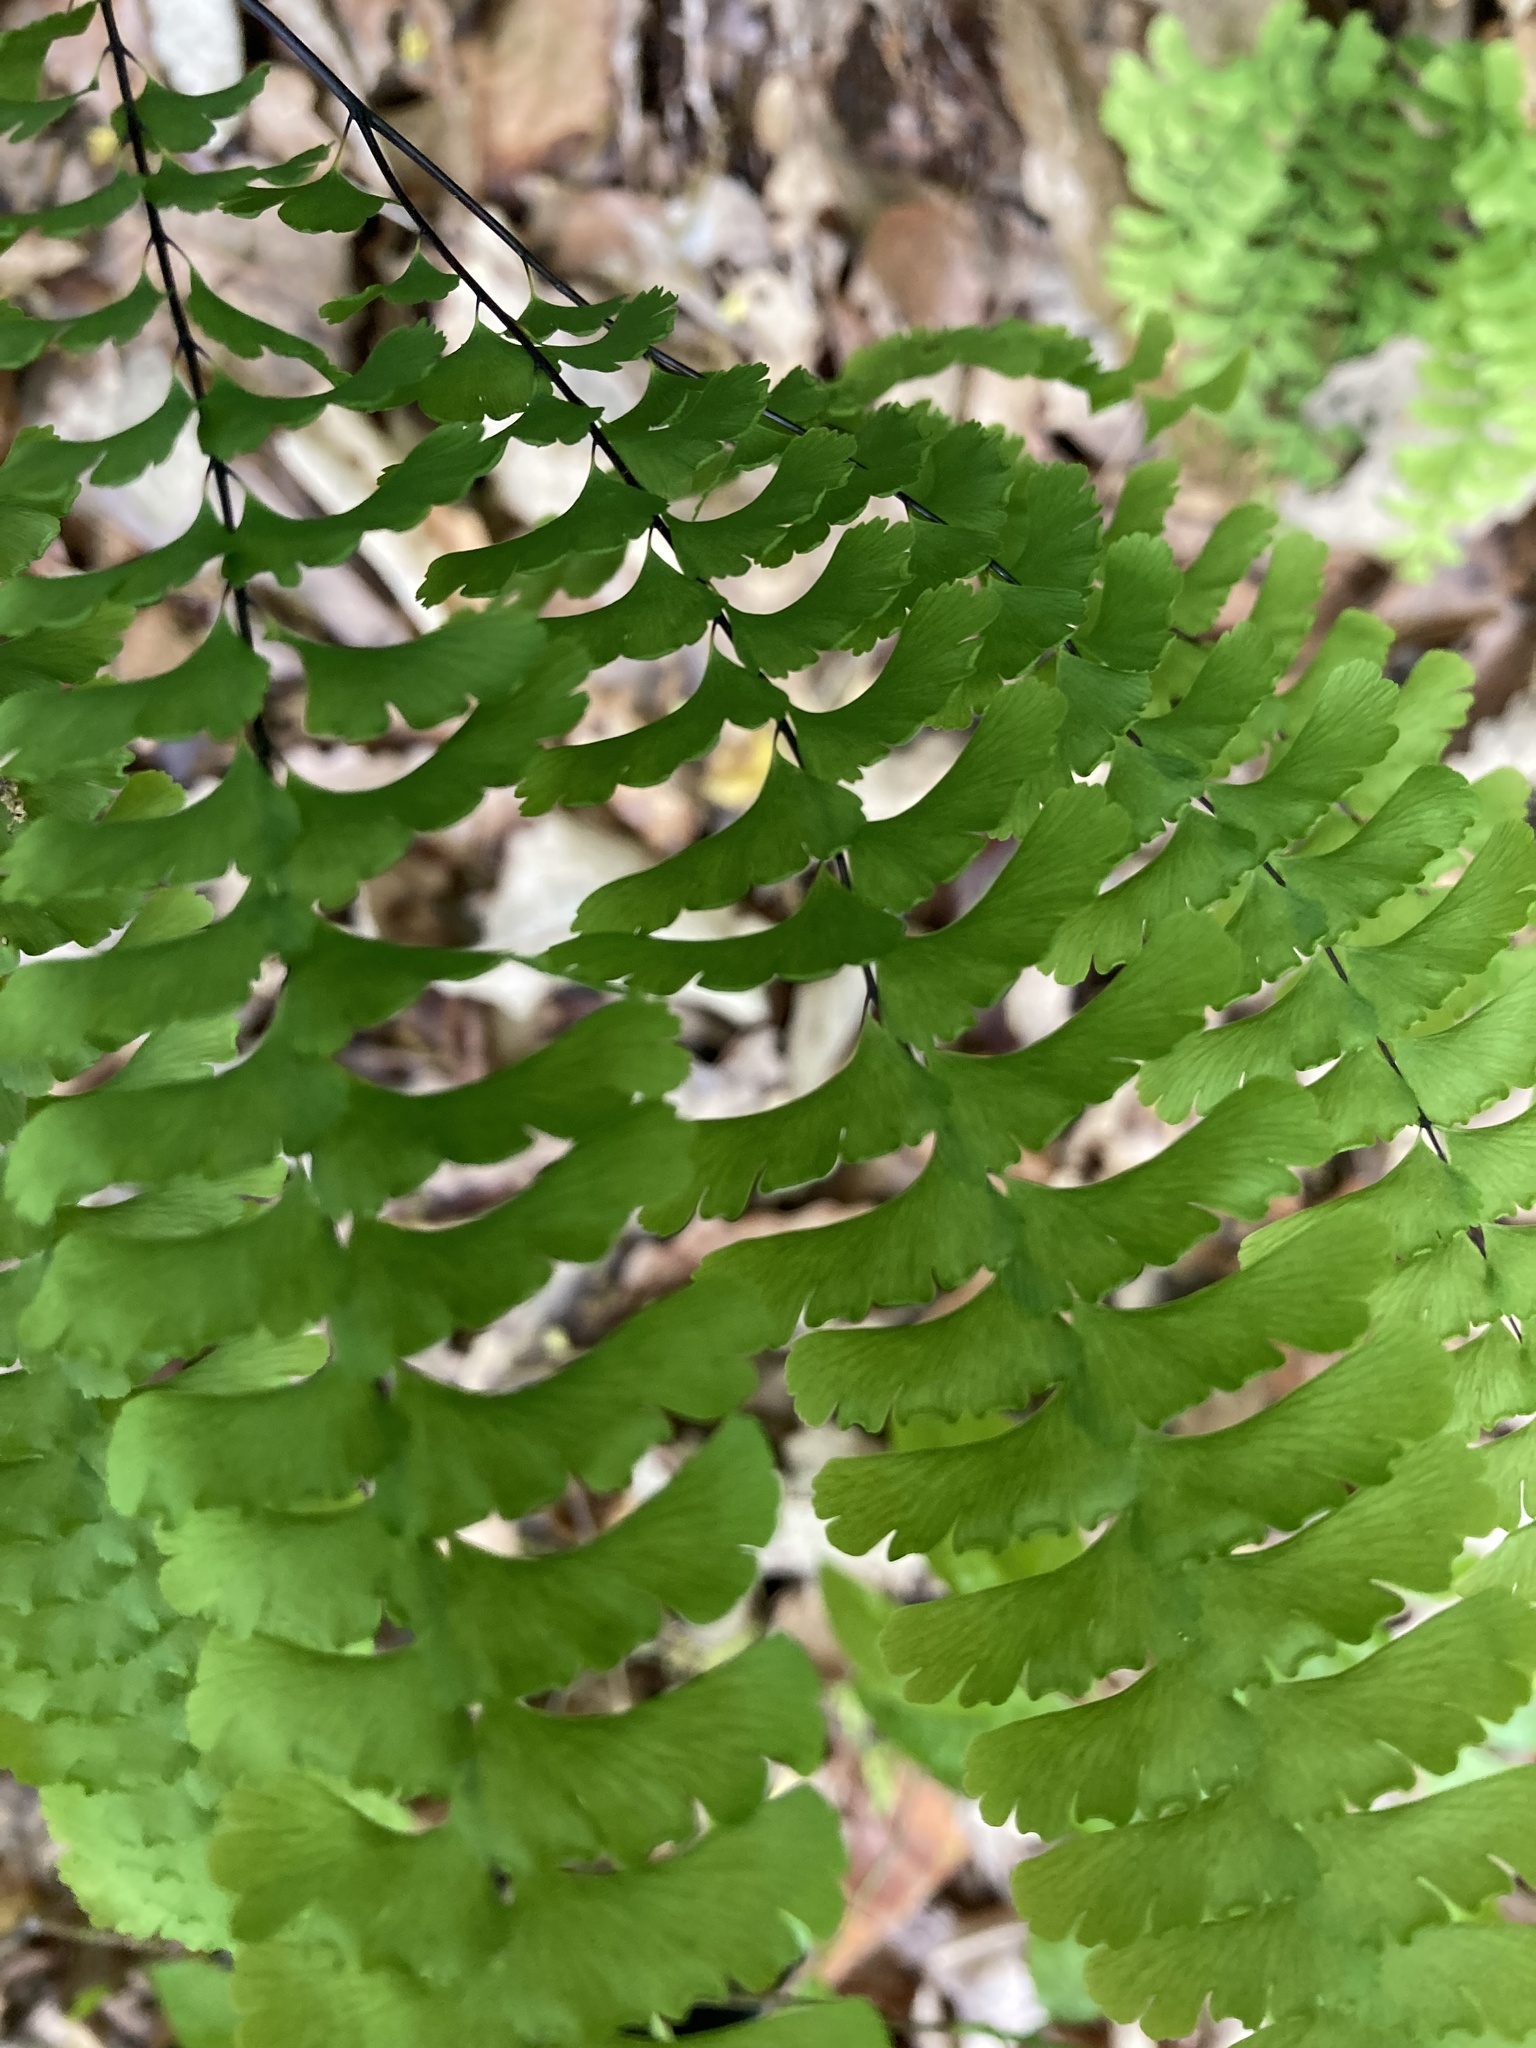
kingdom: Plantae
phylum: Tracheophyta
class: Polypodiopsida
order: Polypodiales
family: Pteridaceae
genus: Adiantum
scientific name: Adiantum pedatum
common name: Five-finger fern
